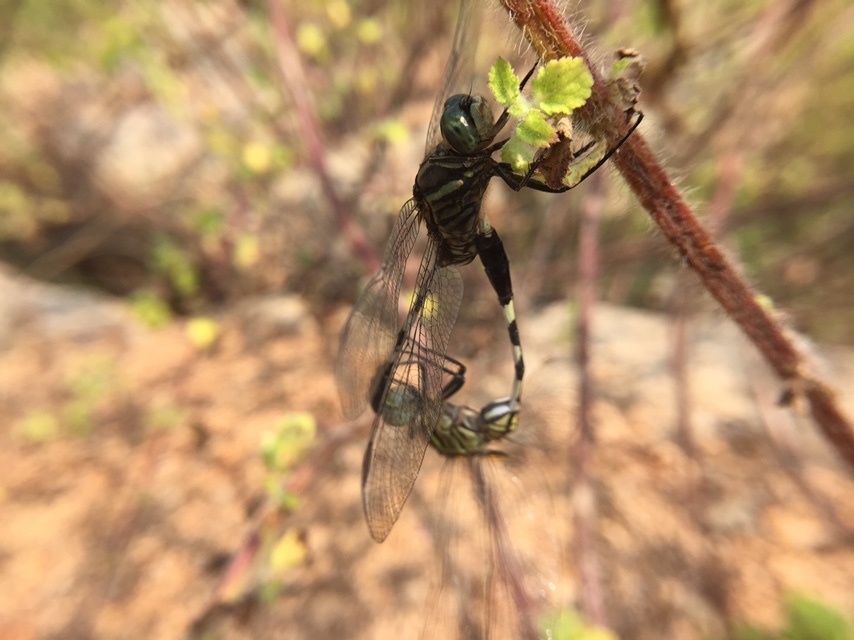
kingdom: Animalia
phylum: Arthropoda
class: Insecta
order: Odonata
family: Libellulidae
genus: Orthetrum
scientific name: Orthetrum sabina
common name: Slender skimmer
